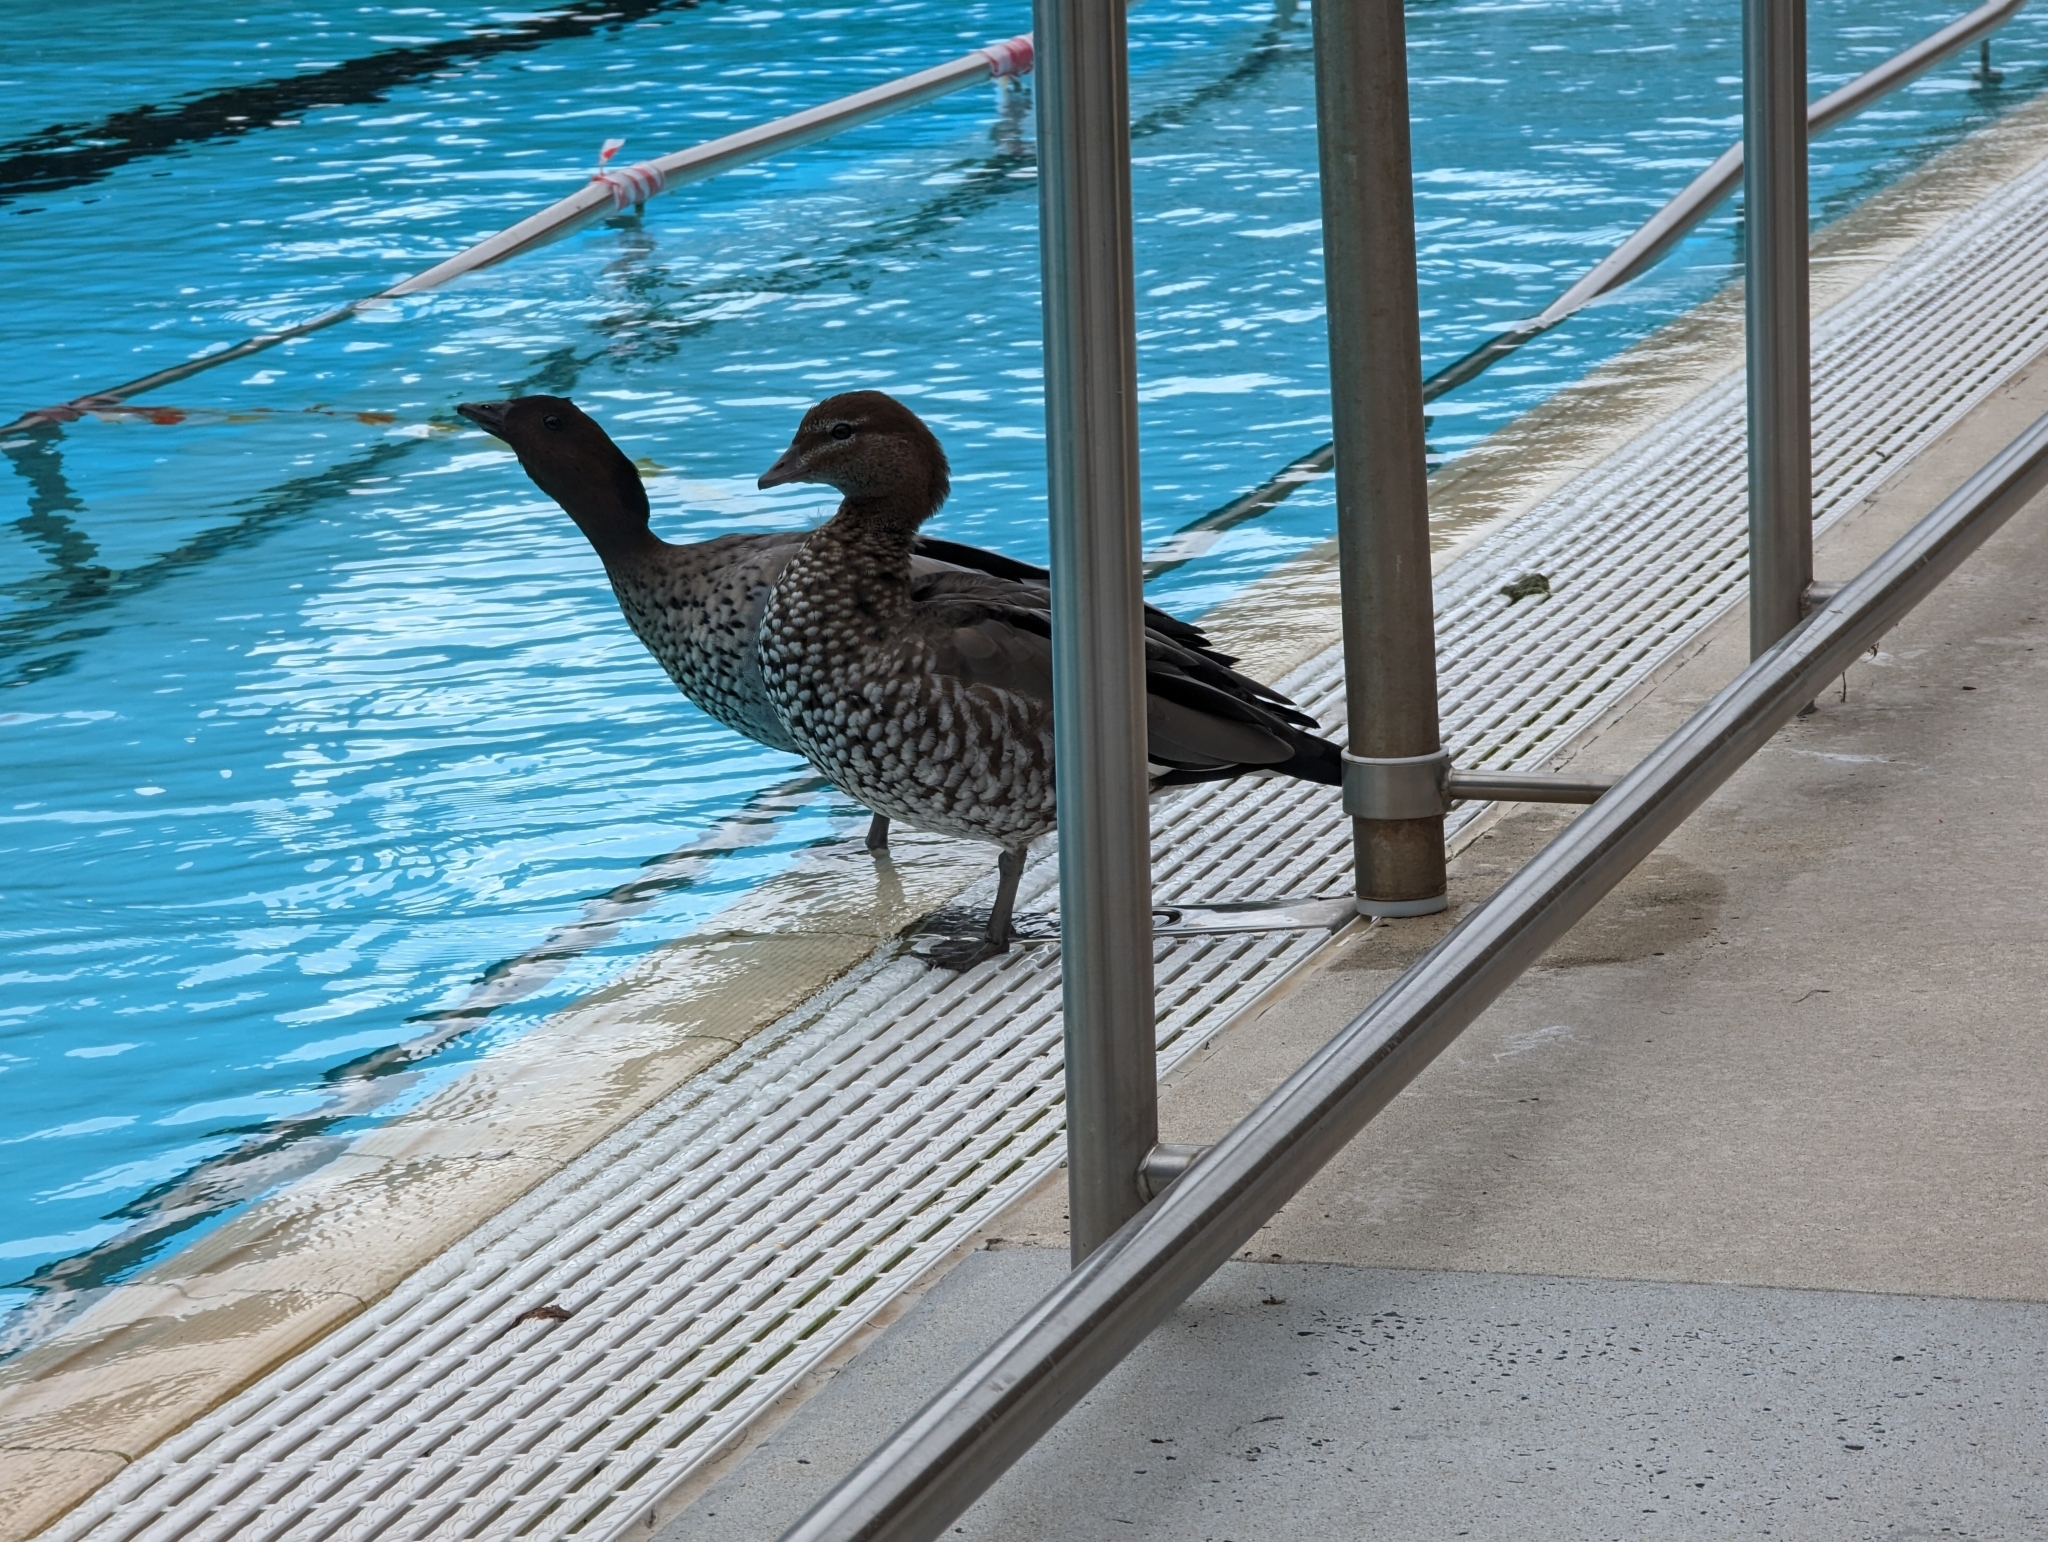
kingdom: Animalia
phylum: Chordata
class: Aves
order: Anseriformes
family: Anatidae
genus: Chenonetta
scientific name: Chenonetta jubata
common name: Maned duck
